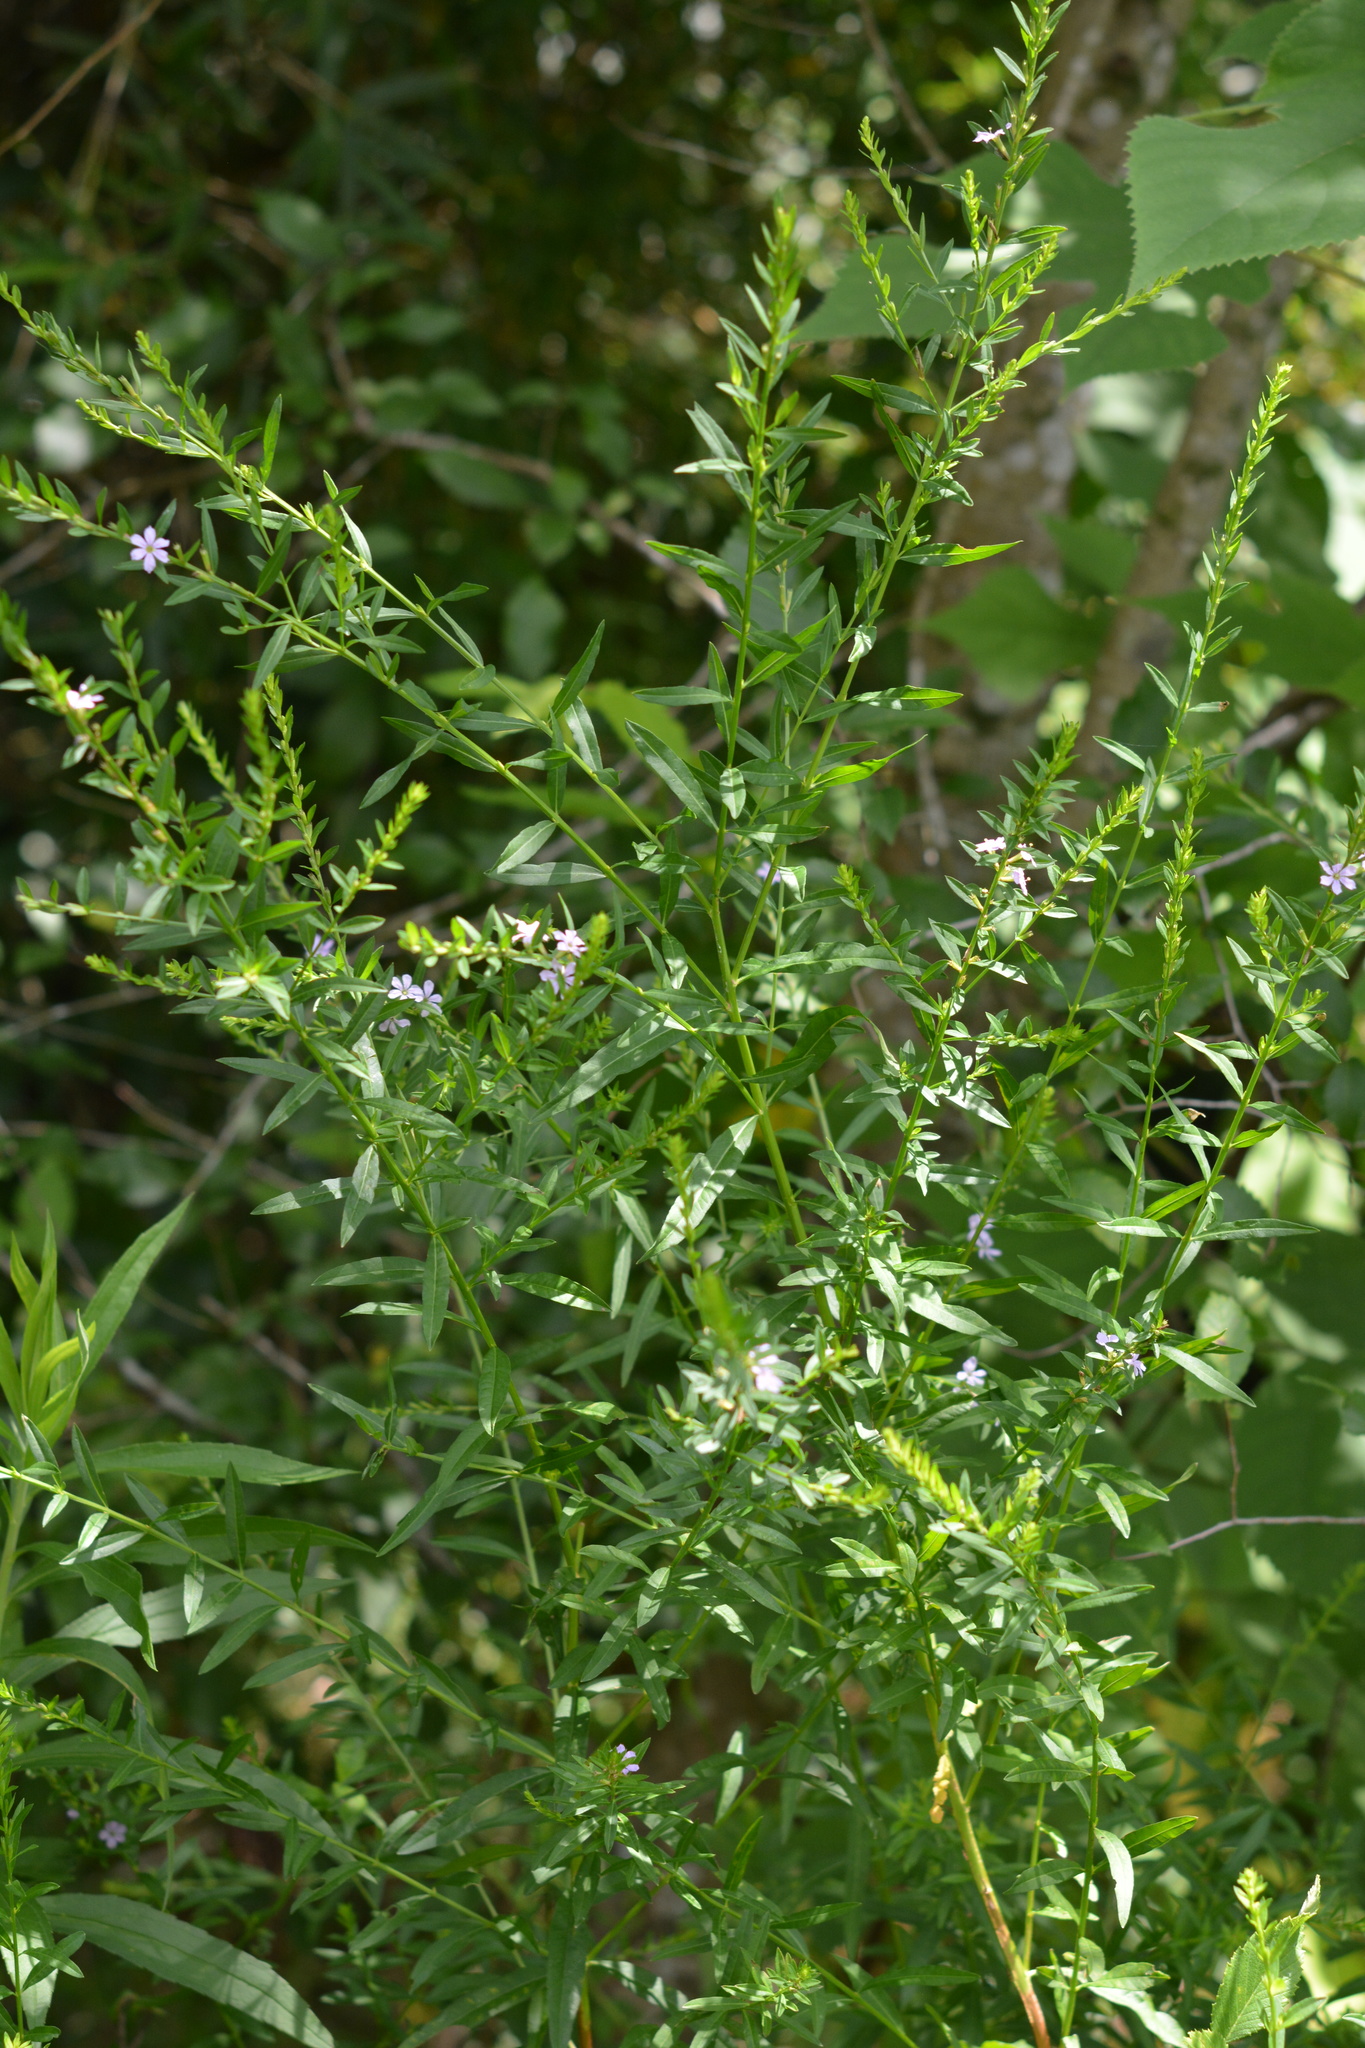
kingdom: Plantae
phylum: Tracheophyta
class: Magnoliopsida
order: Myrtales
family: Lythraceae
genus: Lythrum
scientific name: Lythrum alatum
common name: Winged loosestrife
